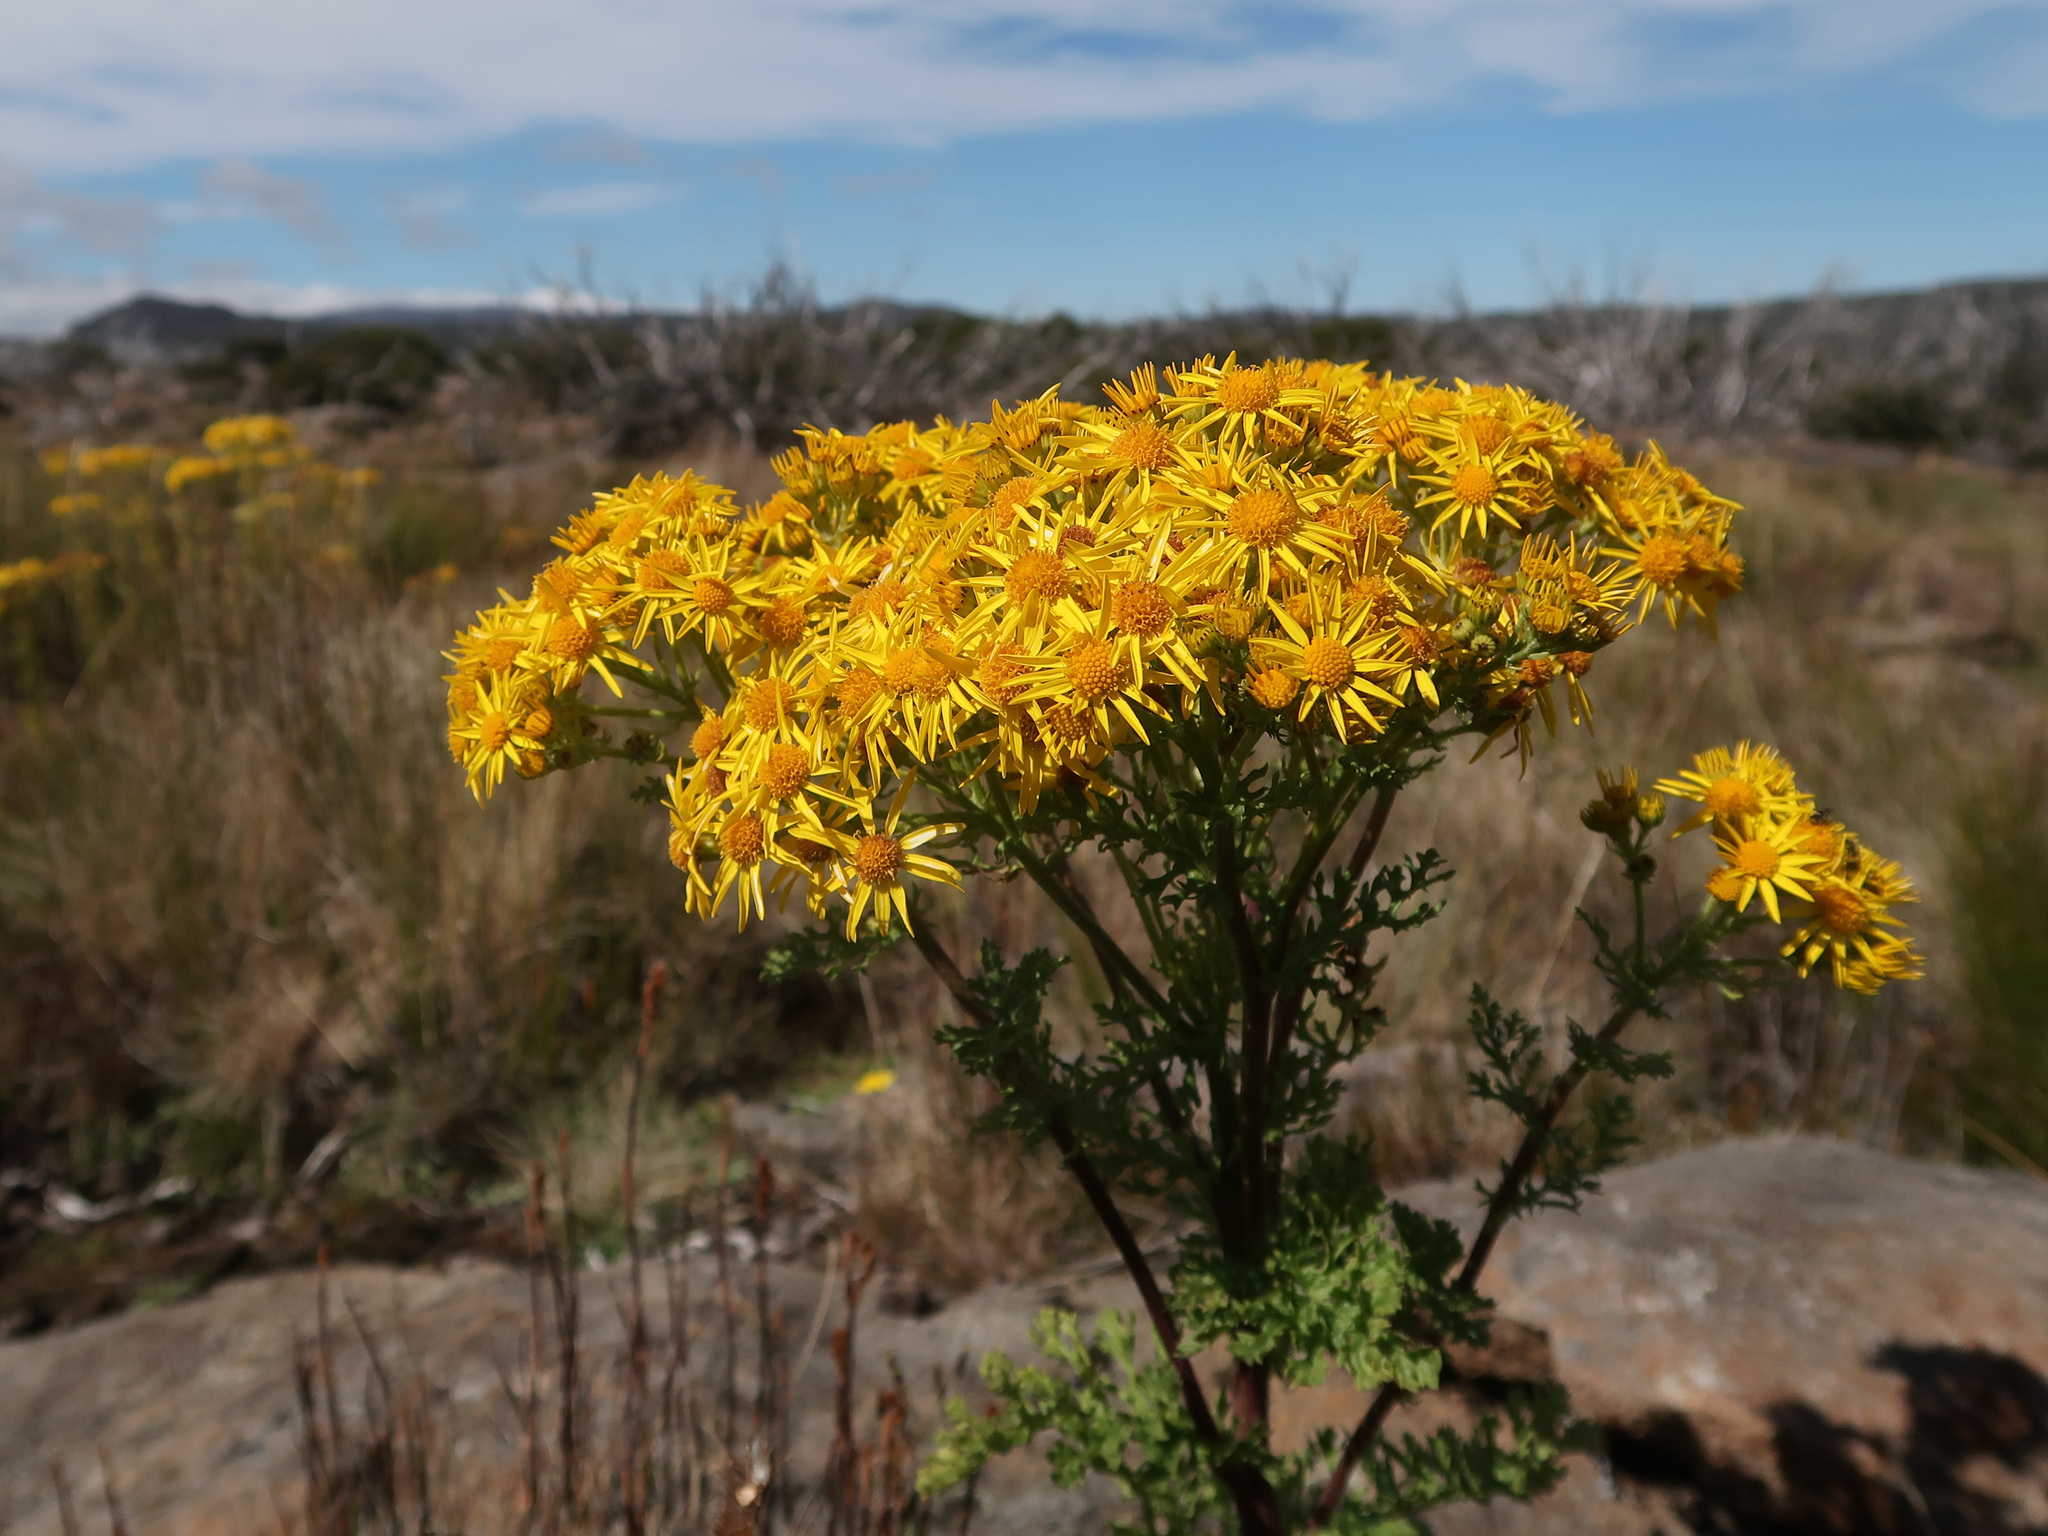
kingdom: Plantae
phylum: Tracheophyta
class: Magnoliopsida
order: Asterales
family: Asteraceae
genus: Jacobaea
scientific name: Jacobaea vulgaris
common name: Stinking willie
